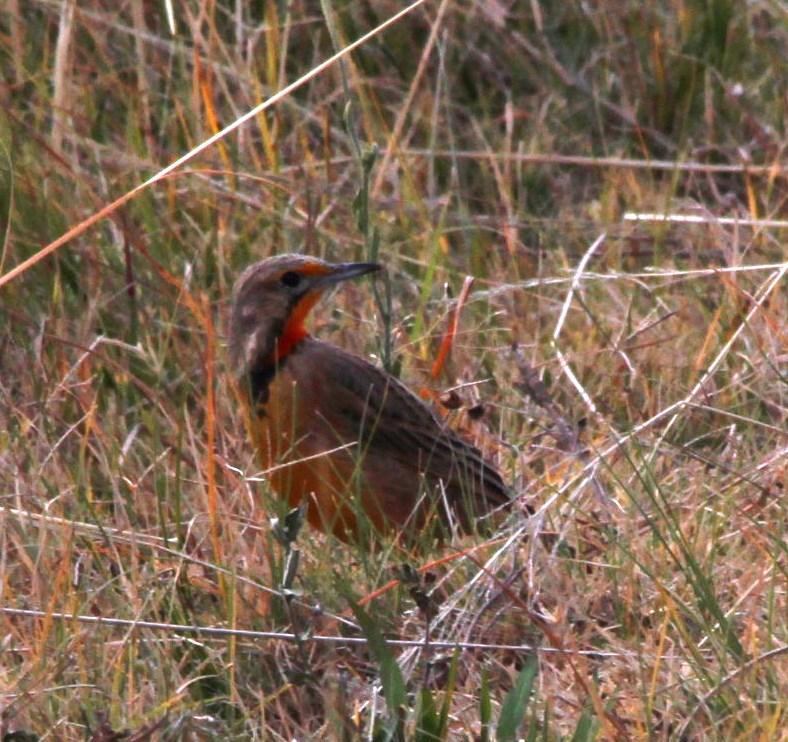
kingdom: Animalia
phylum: Chordata
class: Aves
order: Passeriformes
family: Motacillidae
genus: Macronyx
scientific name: Macronyx capensis
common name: Cape longclaw
